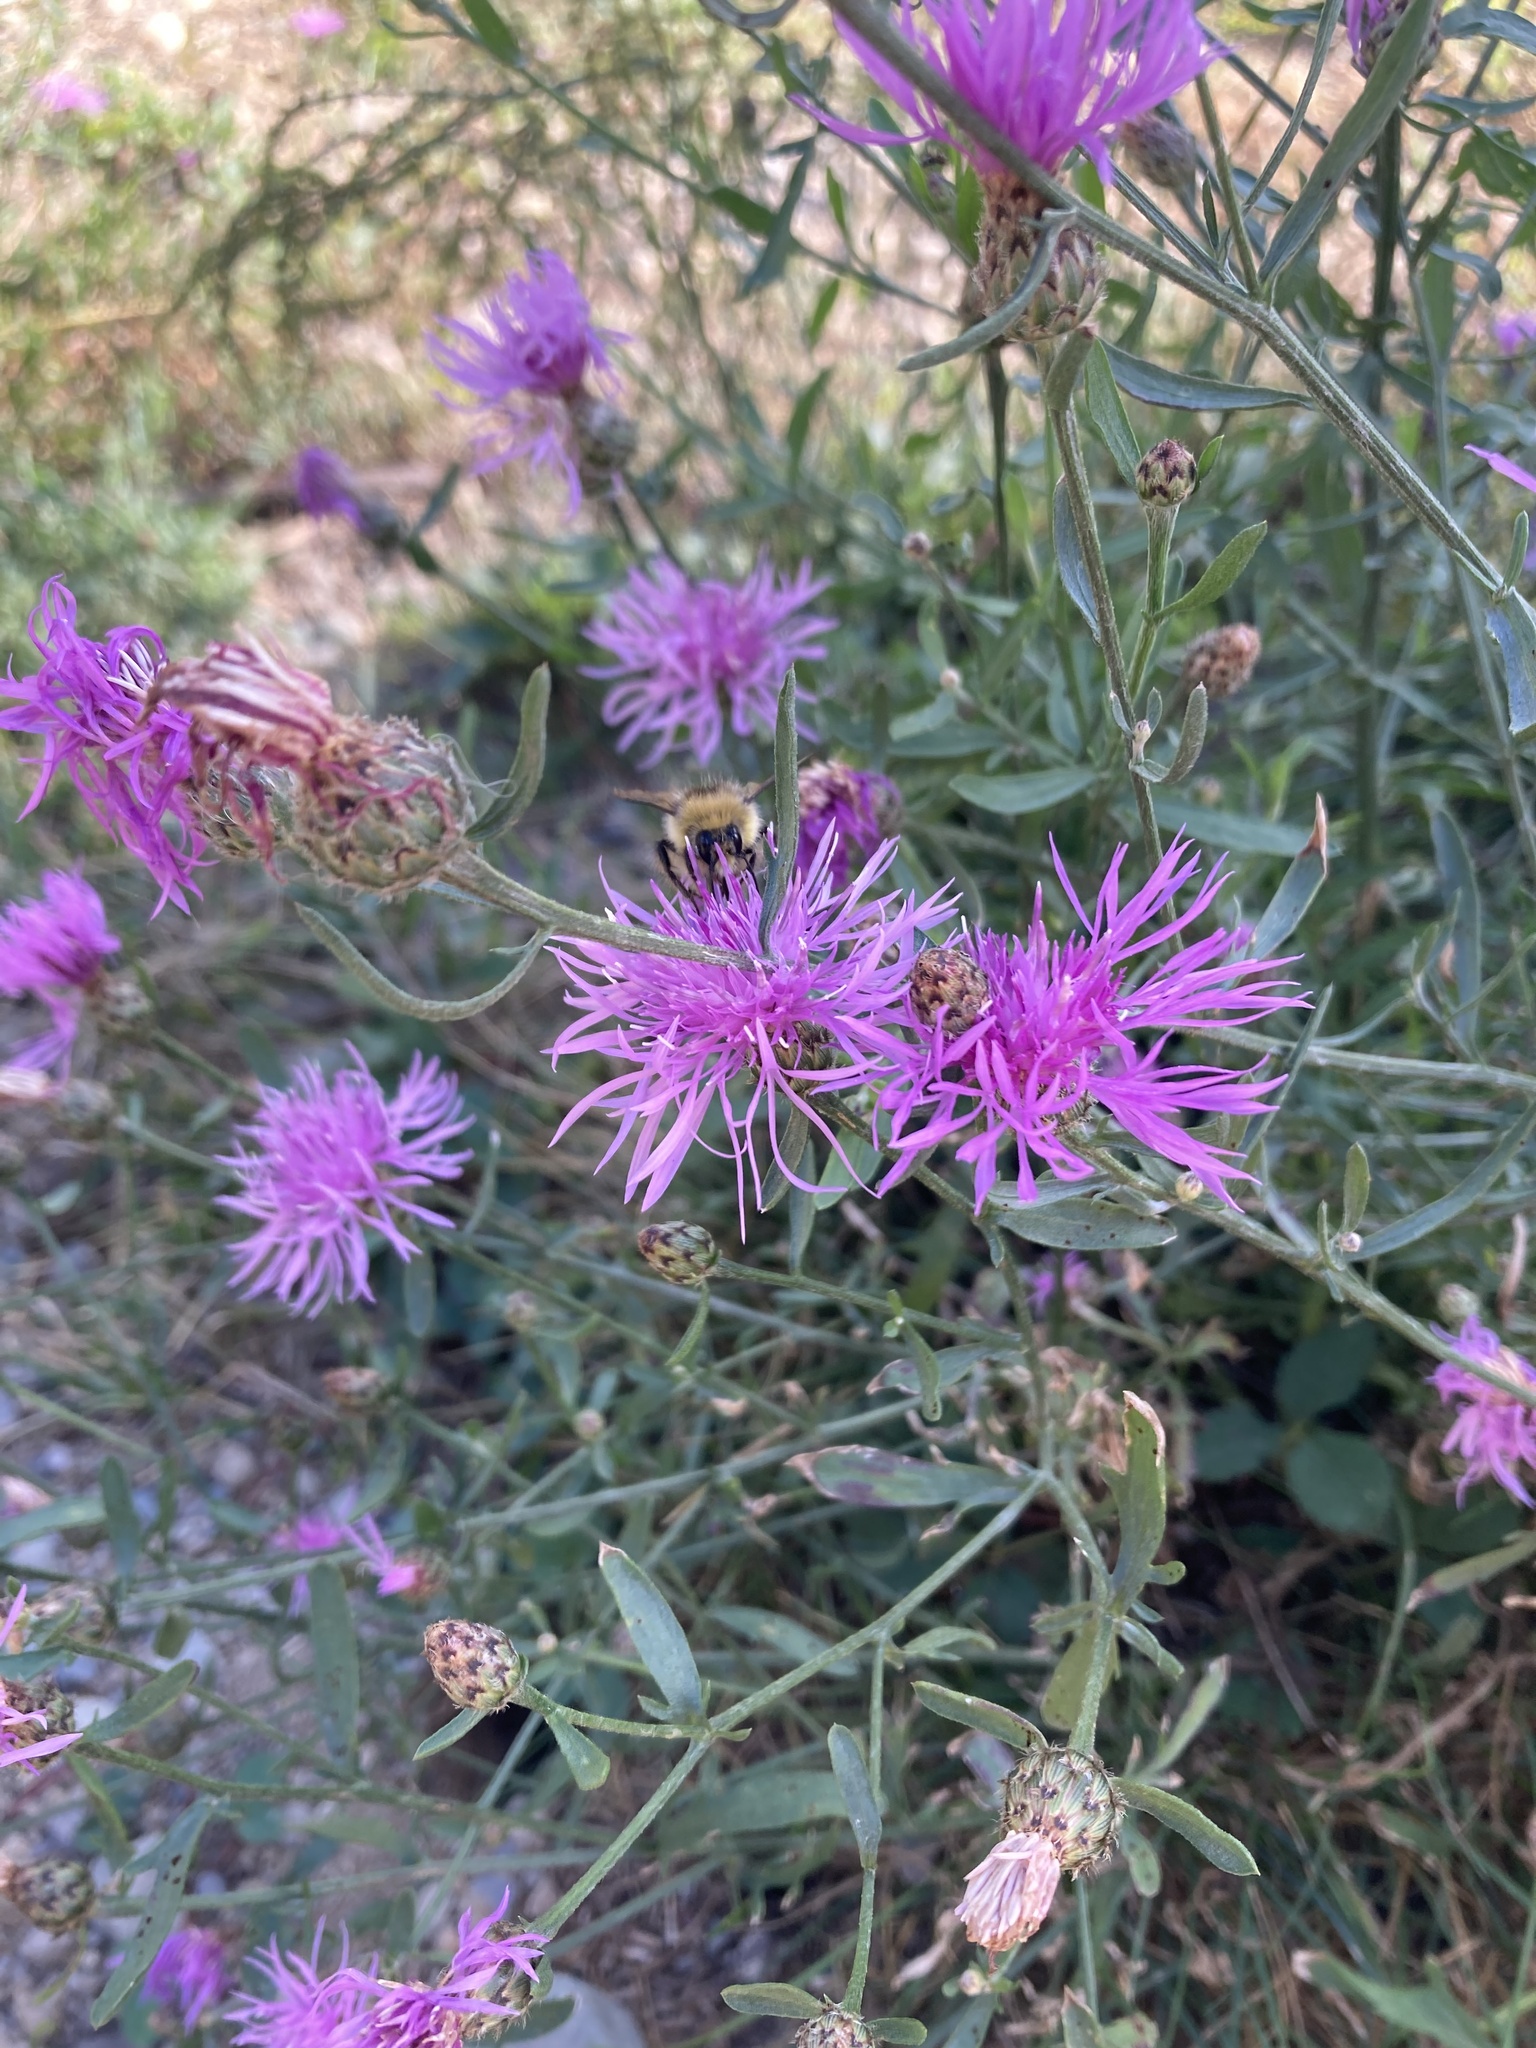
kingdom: Plantae
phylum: Tracheophyta
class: Magnoliopsida
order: Asterales
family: Asteraceae
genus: Centaurea
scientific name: Centaurea stoebe
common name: Spotted knapweed
